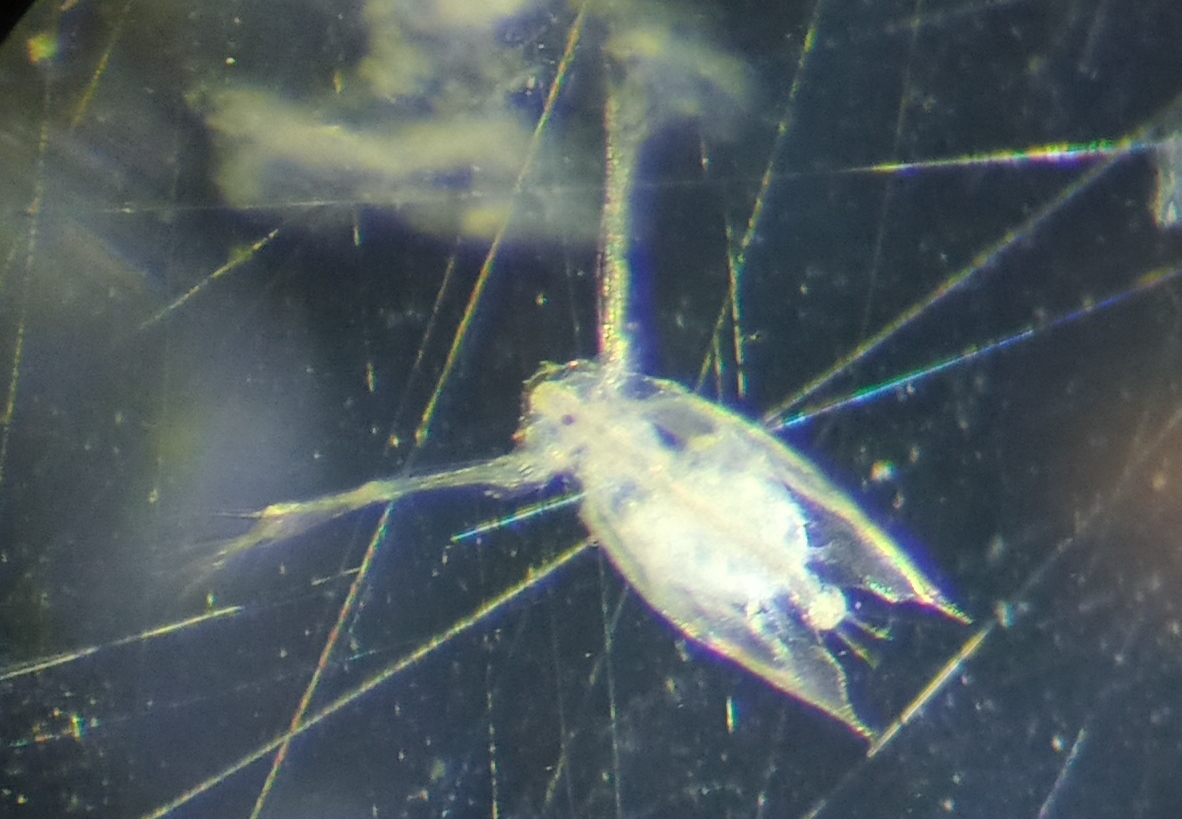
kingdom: Animalia
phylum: Arthropoda
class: Branchiopoda
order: Diplostraca
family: Sididae
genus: Penilia
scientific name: Penilia avirostris
